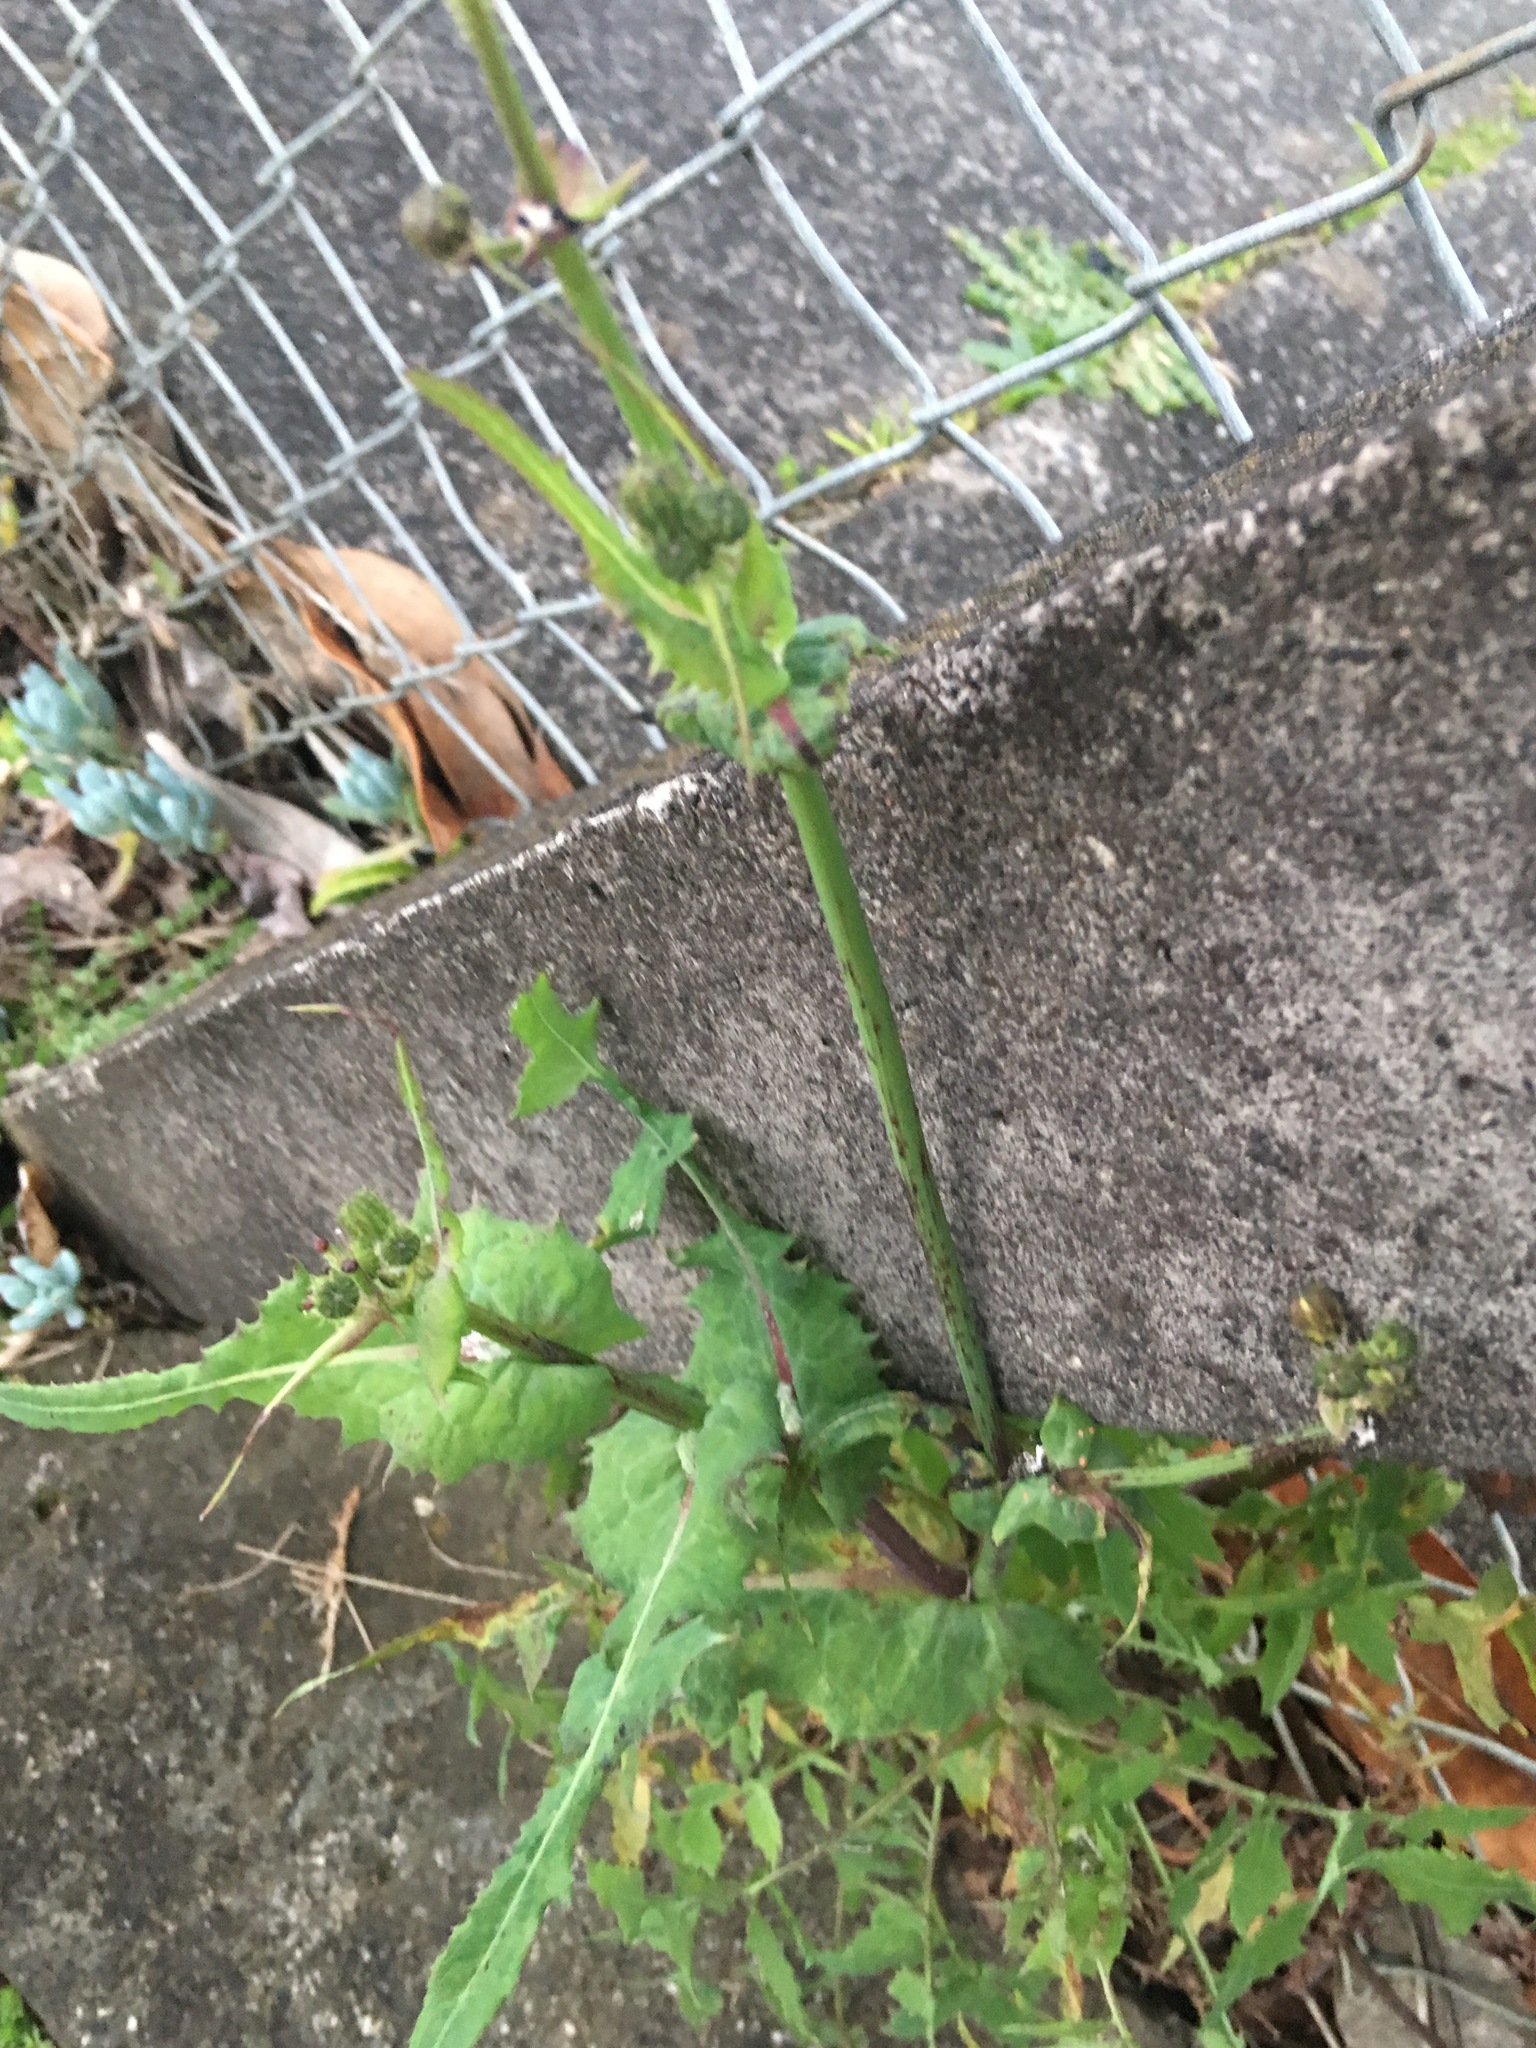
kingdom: Plantae
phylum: Tracheophyta
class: Magnoliopsida
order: Asterales
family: Asteraceae
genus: Sonchus
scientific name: Sonchus oleraceus
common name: Common sowthistle
